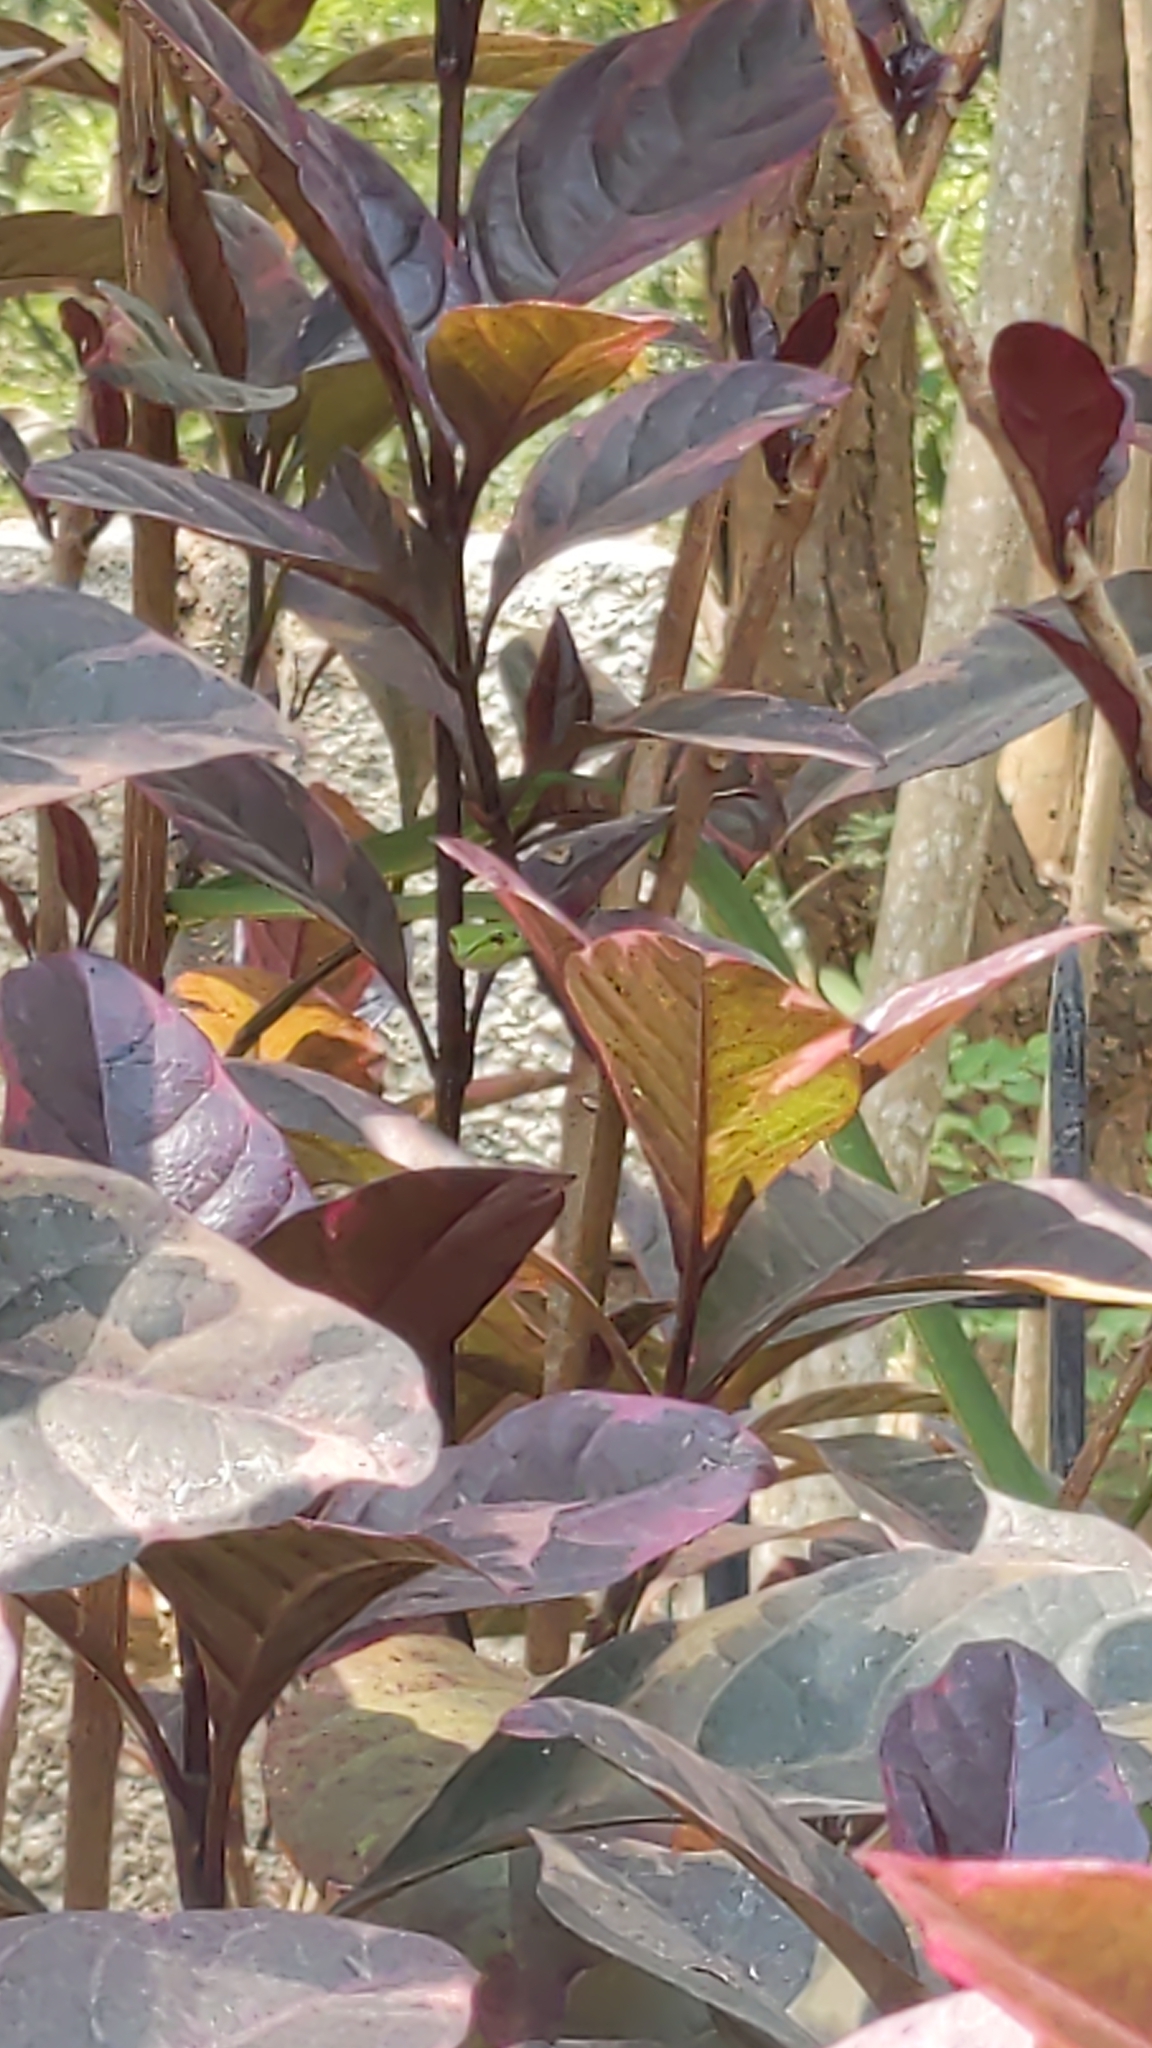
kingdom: Animalia
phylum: Chordata
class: Squamata
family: Colubridae
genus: Ahaetulla
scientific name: Ahaetulla oxyrhyncha
